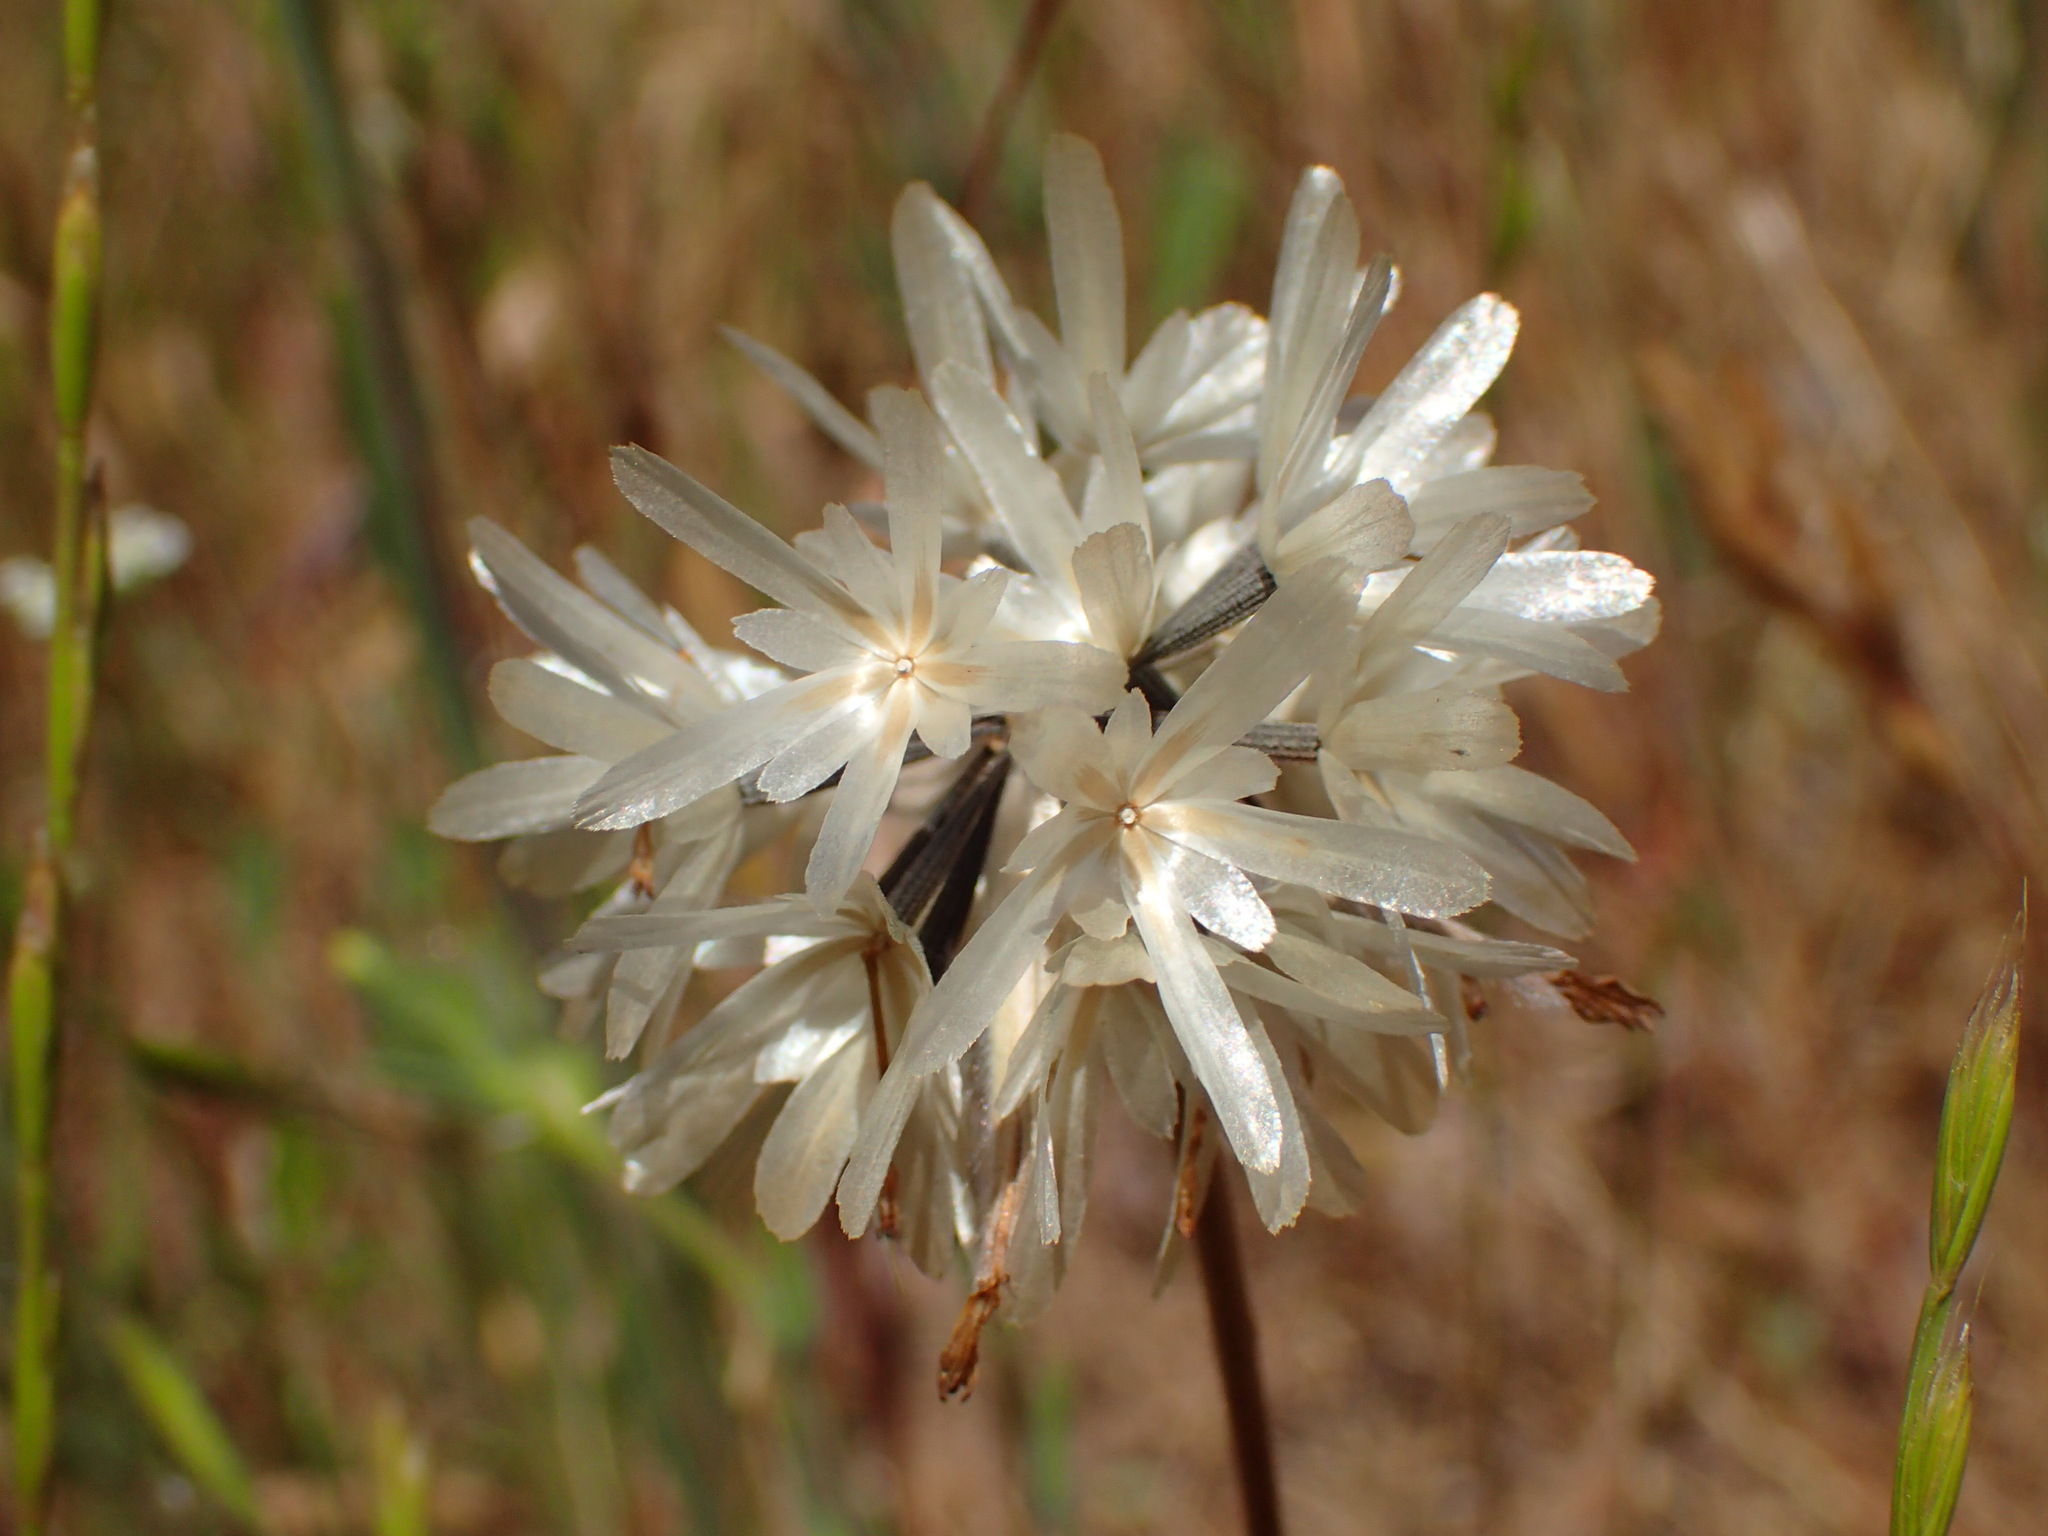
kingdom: Plantae
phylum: Tracheophyta
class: Magnoliopsida
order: Asterales
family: Asteraceae
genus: Achyrachaena
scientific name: Achyrachaena mollis
